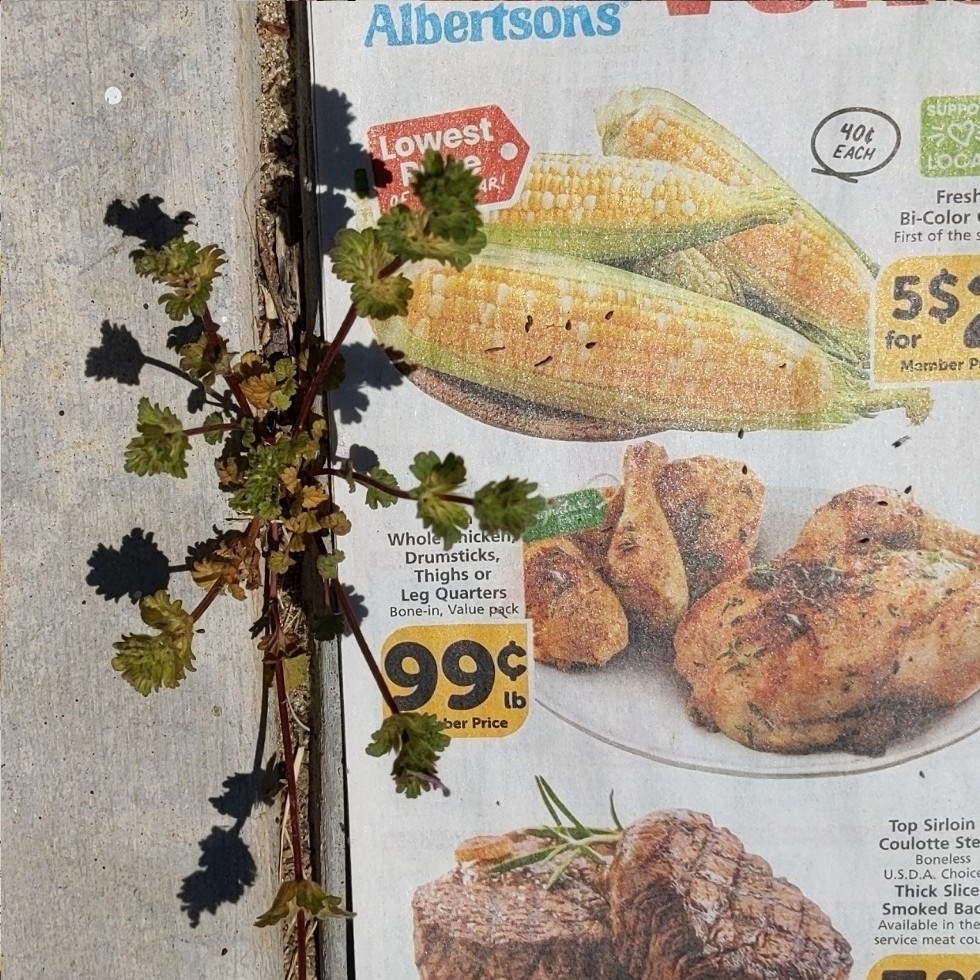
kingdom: Plantae
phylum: Tracheophyta
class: Magnoliopsida
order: Lamiales
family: Lamiaceae
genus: Lamium
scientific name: Lamium amplexicaule
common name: Henbit dead-nettle
